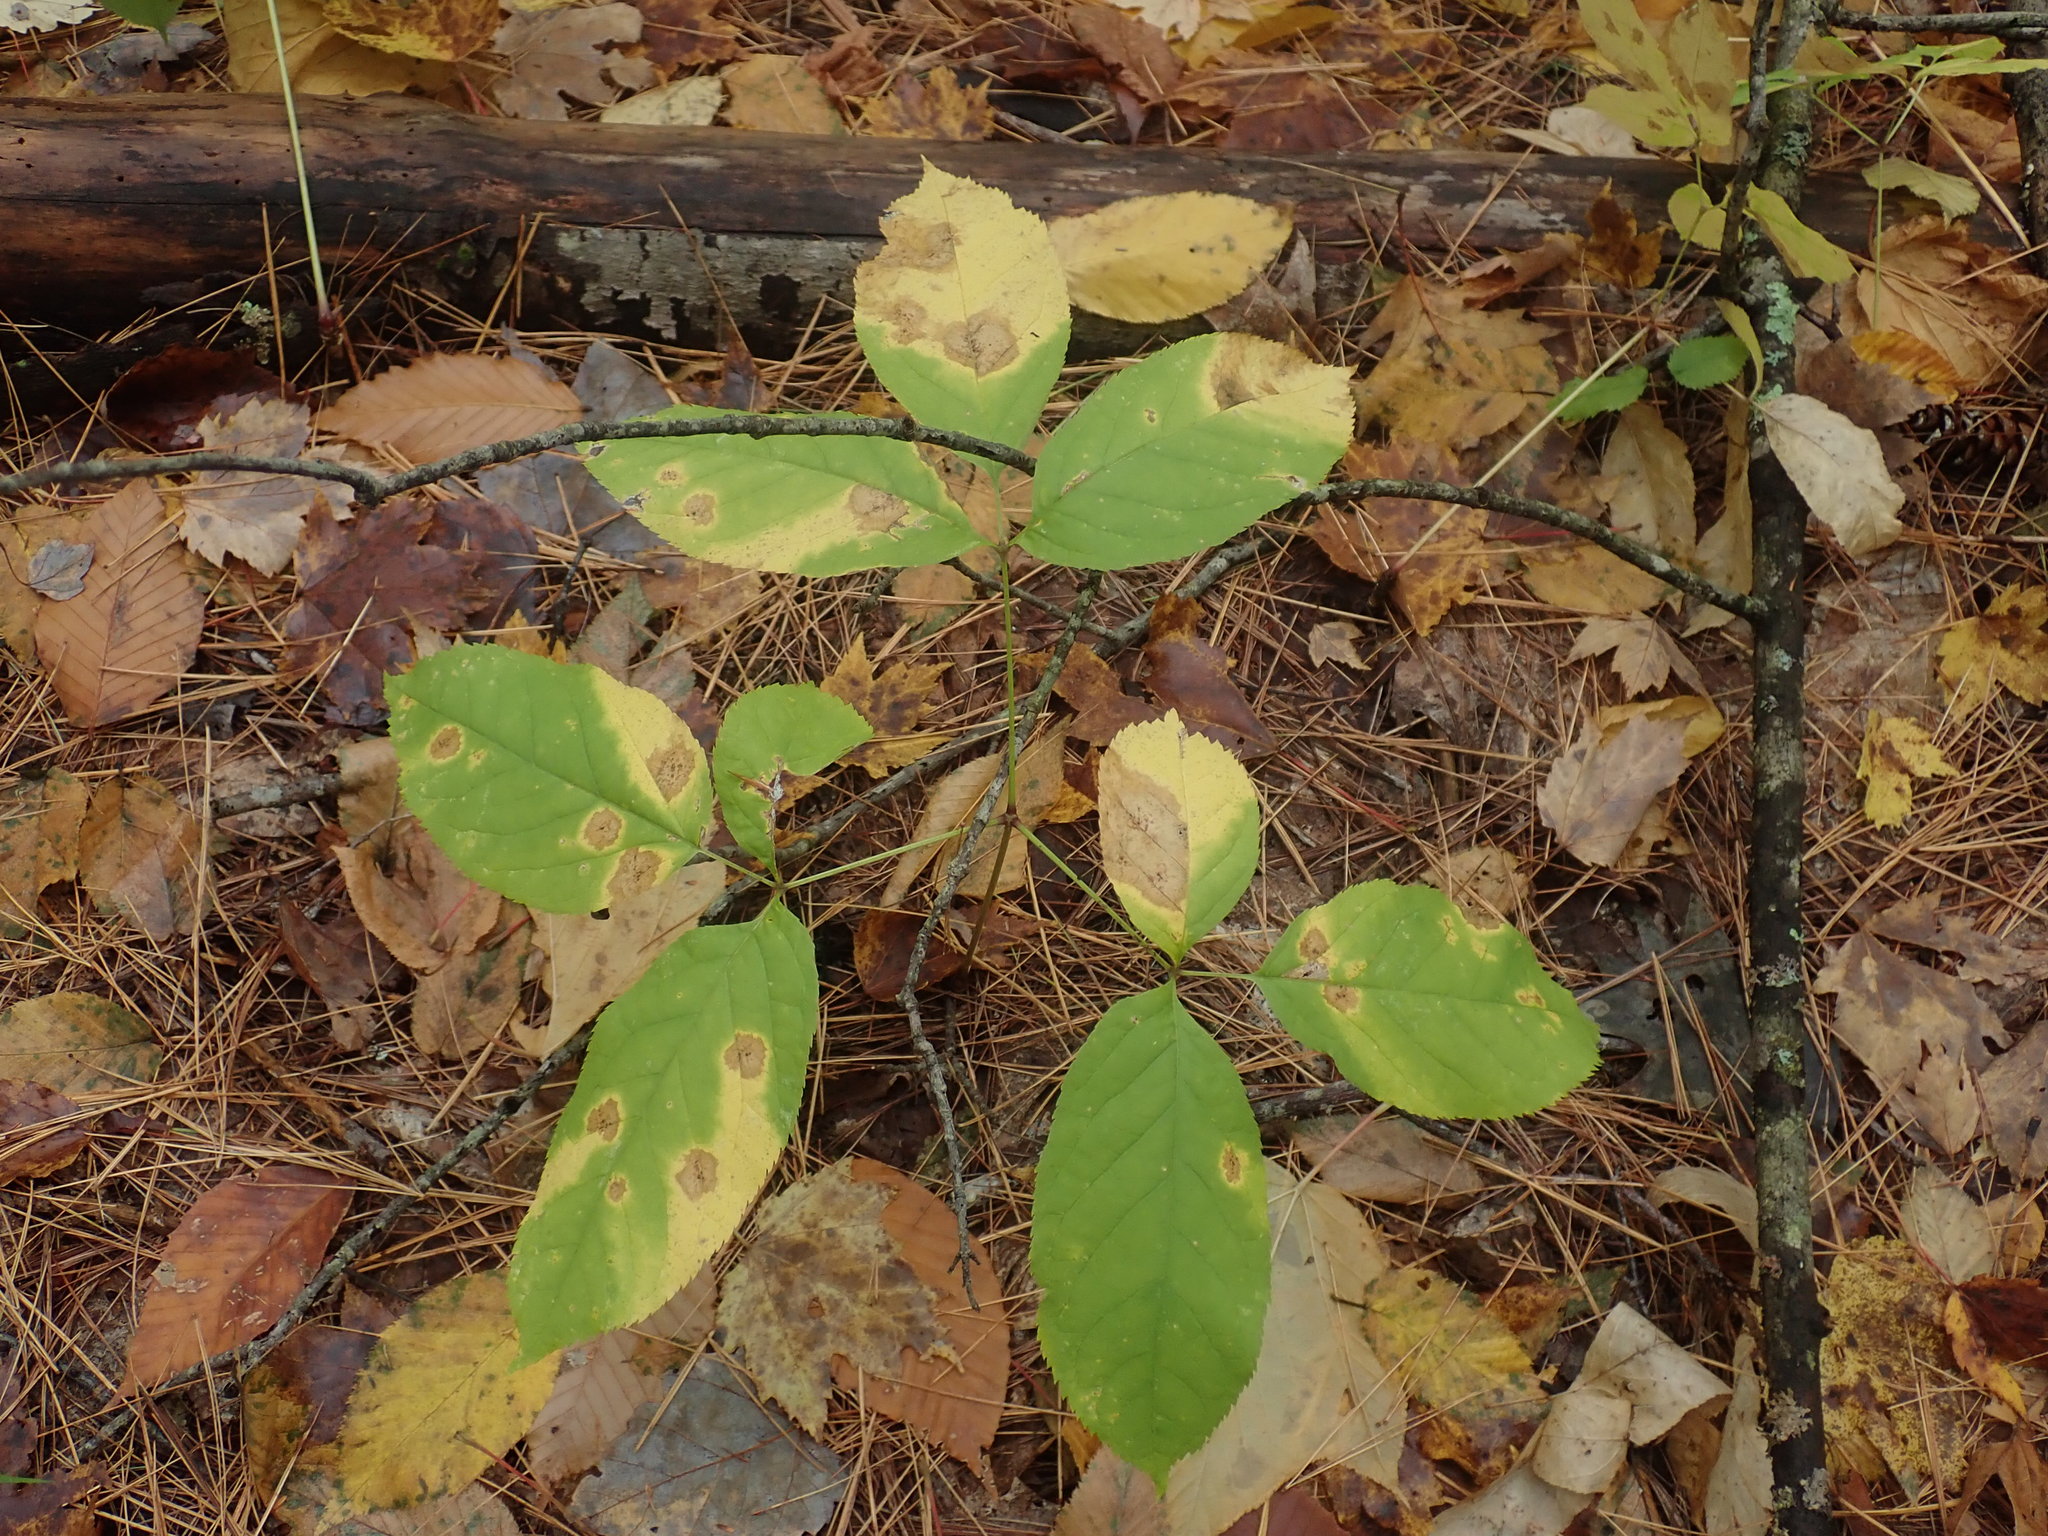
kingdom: Plantae
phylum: Tracheophyta
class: Magnoliopsida
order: Apiales
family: Araliaceae
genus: Aralia
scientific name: Aralia nudicaulis
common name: Wild sarsaparilla
